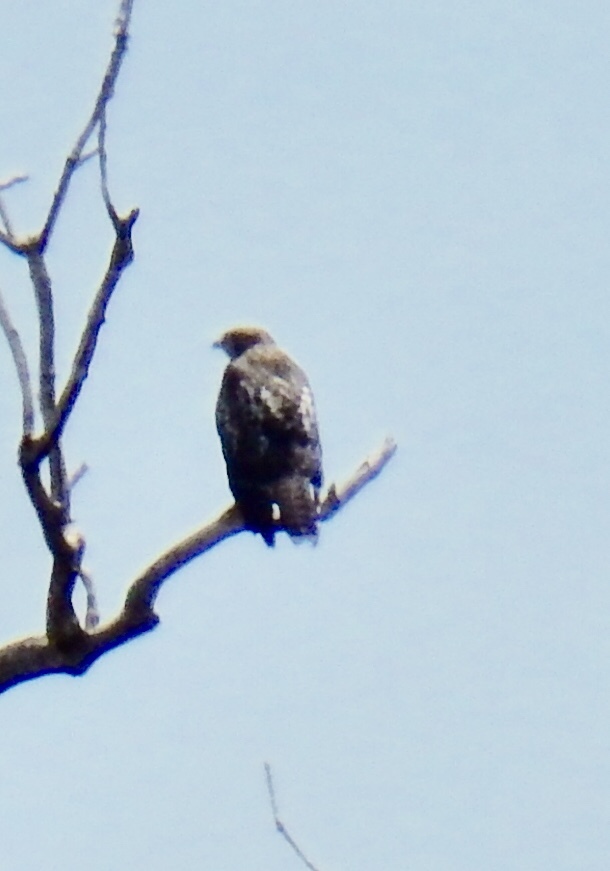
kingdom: Animalia
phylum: Chordata
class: Aves
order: Accipitriformes
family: Accipitridae
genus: Buteo
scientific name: Buteo jamaicensis
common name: Red-tailed hawk
